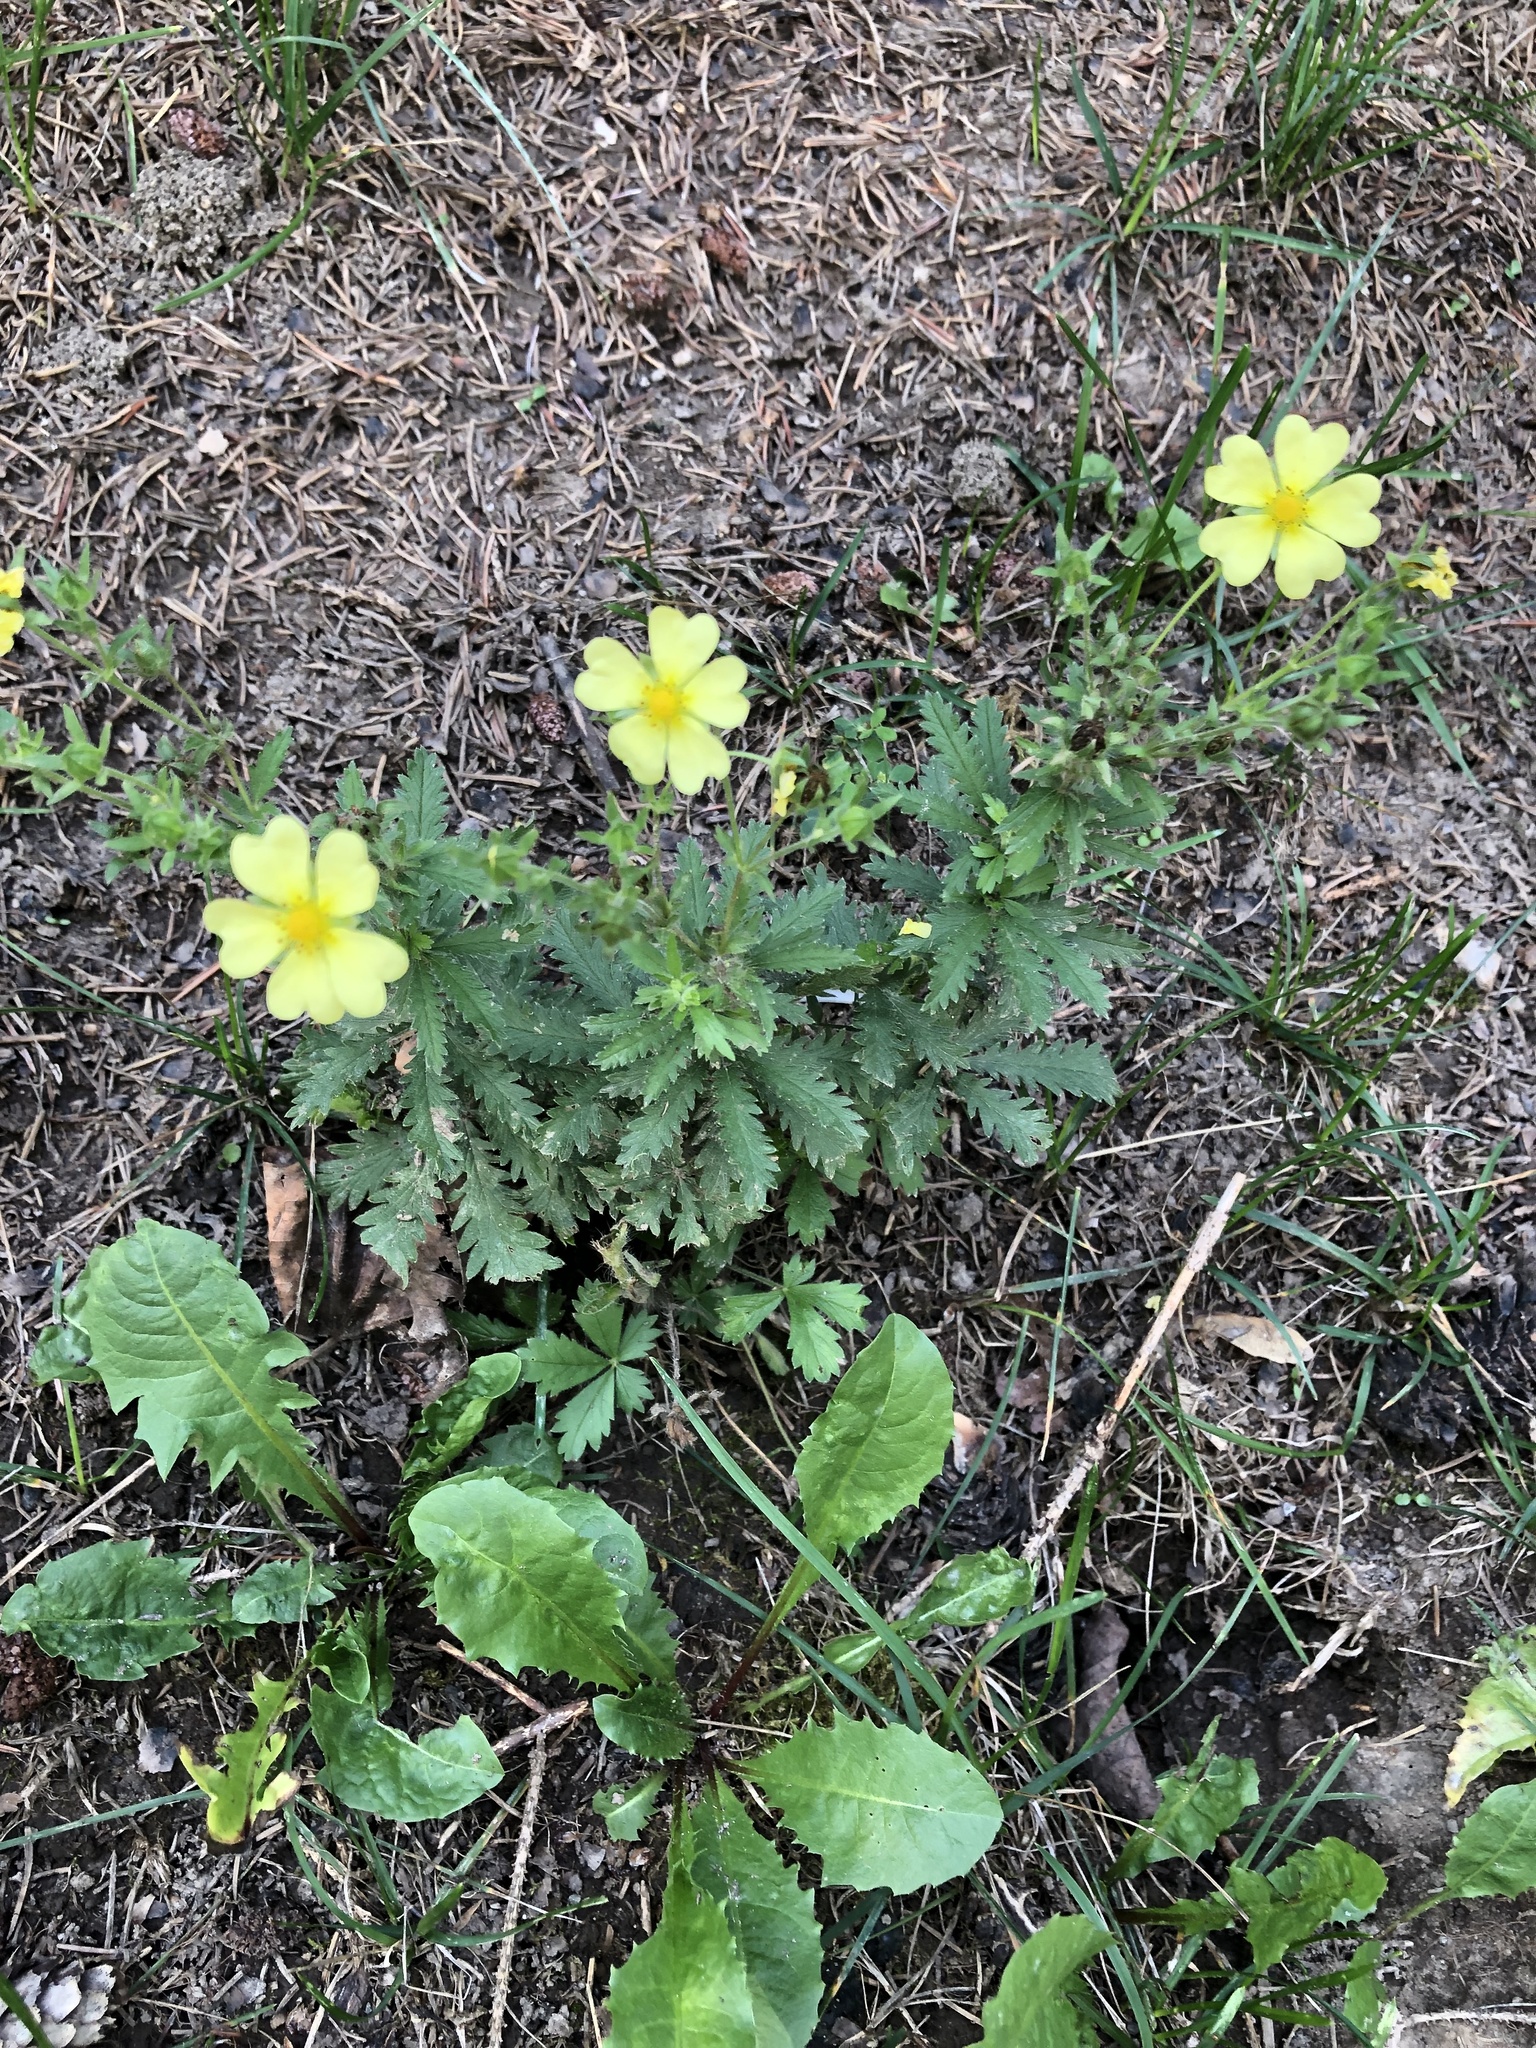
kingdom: Plantae
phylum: Tracheophyta
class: Magnoliopsida
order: Rosales
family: Rosaceae
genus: Potentilla
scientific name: Potentilla recta
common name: Sulphur cinquefoil
